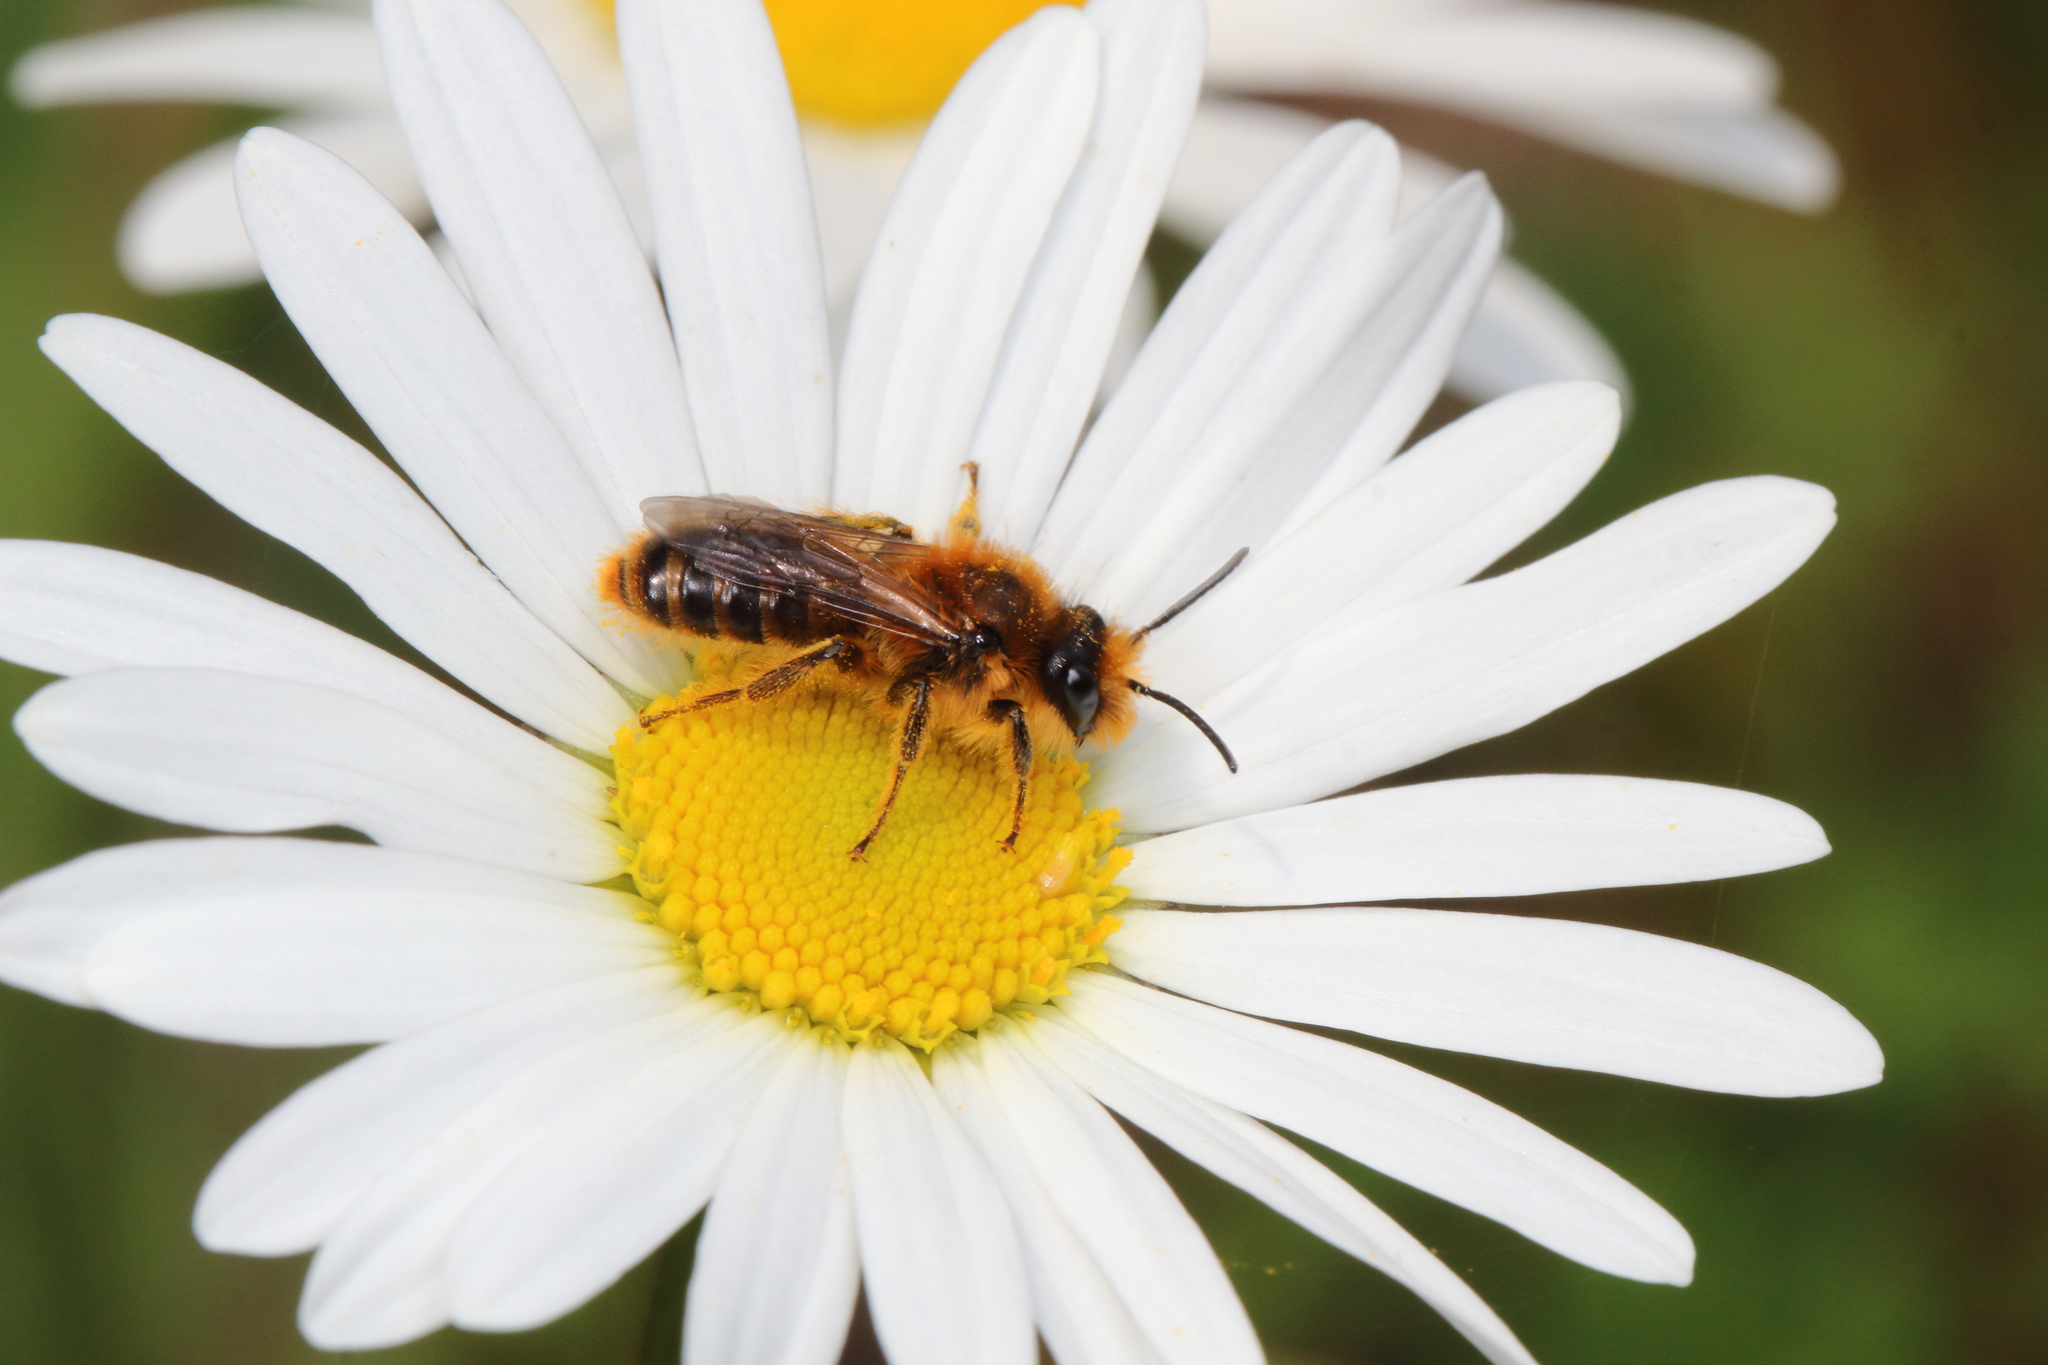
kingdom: Animalia
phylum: Arthropoda
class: Insecta
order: Hymenoptera
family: Colletidae
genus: Leioproctus
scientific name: Leioproctus fulvescens
